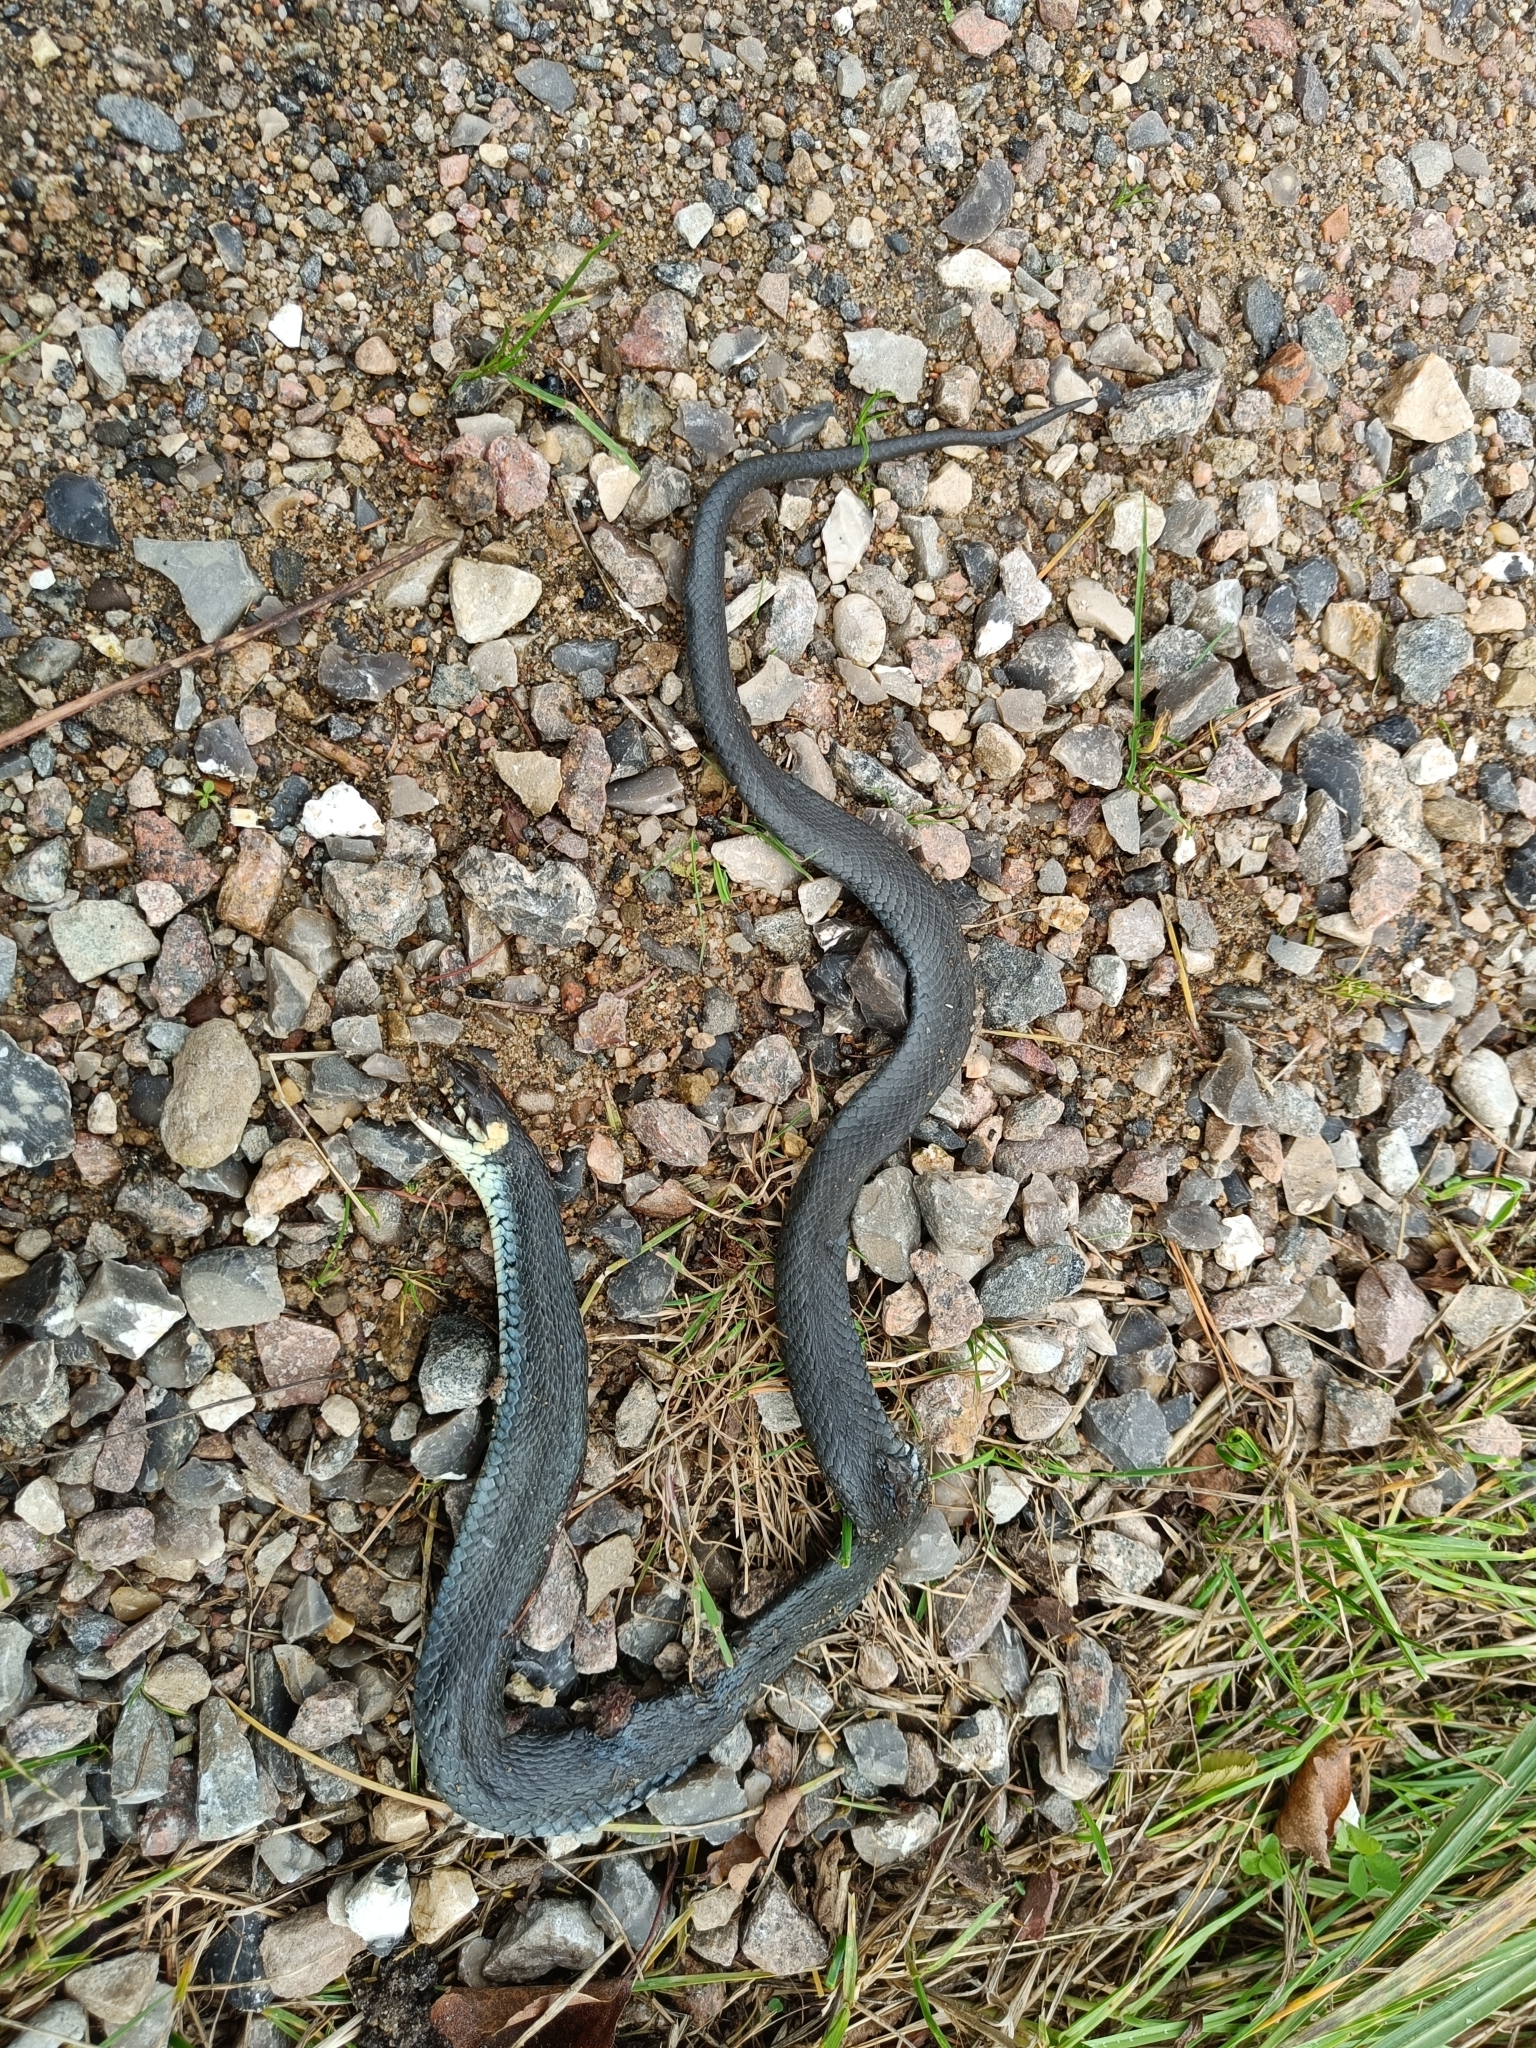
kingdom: Animalia
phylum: Chordata
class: Squamata
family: Colubridae
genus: Natrix
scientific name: Natrix natrix
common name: Grass snake
